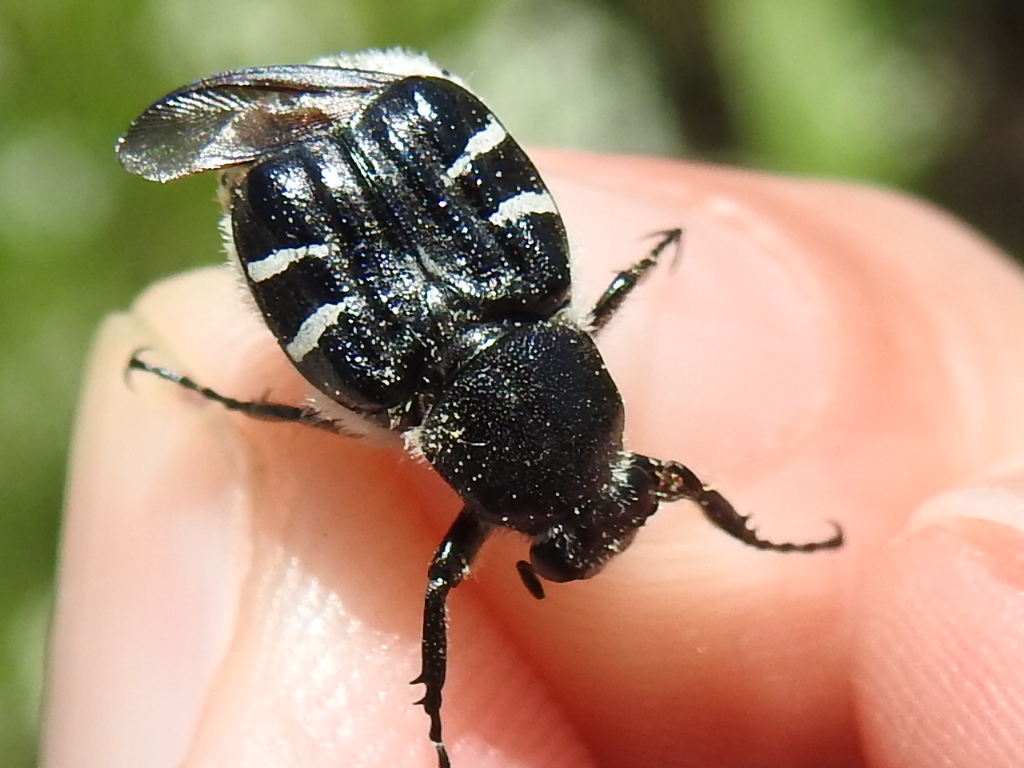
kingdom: Animalia
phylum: Arthropoda
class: Insecta
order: Coleoptera
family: Scarabaeidae
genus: Trichiotinus
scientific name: Trichiotinus texanus
